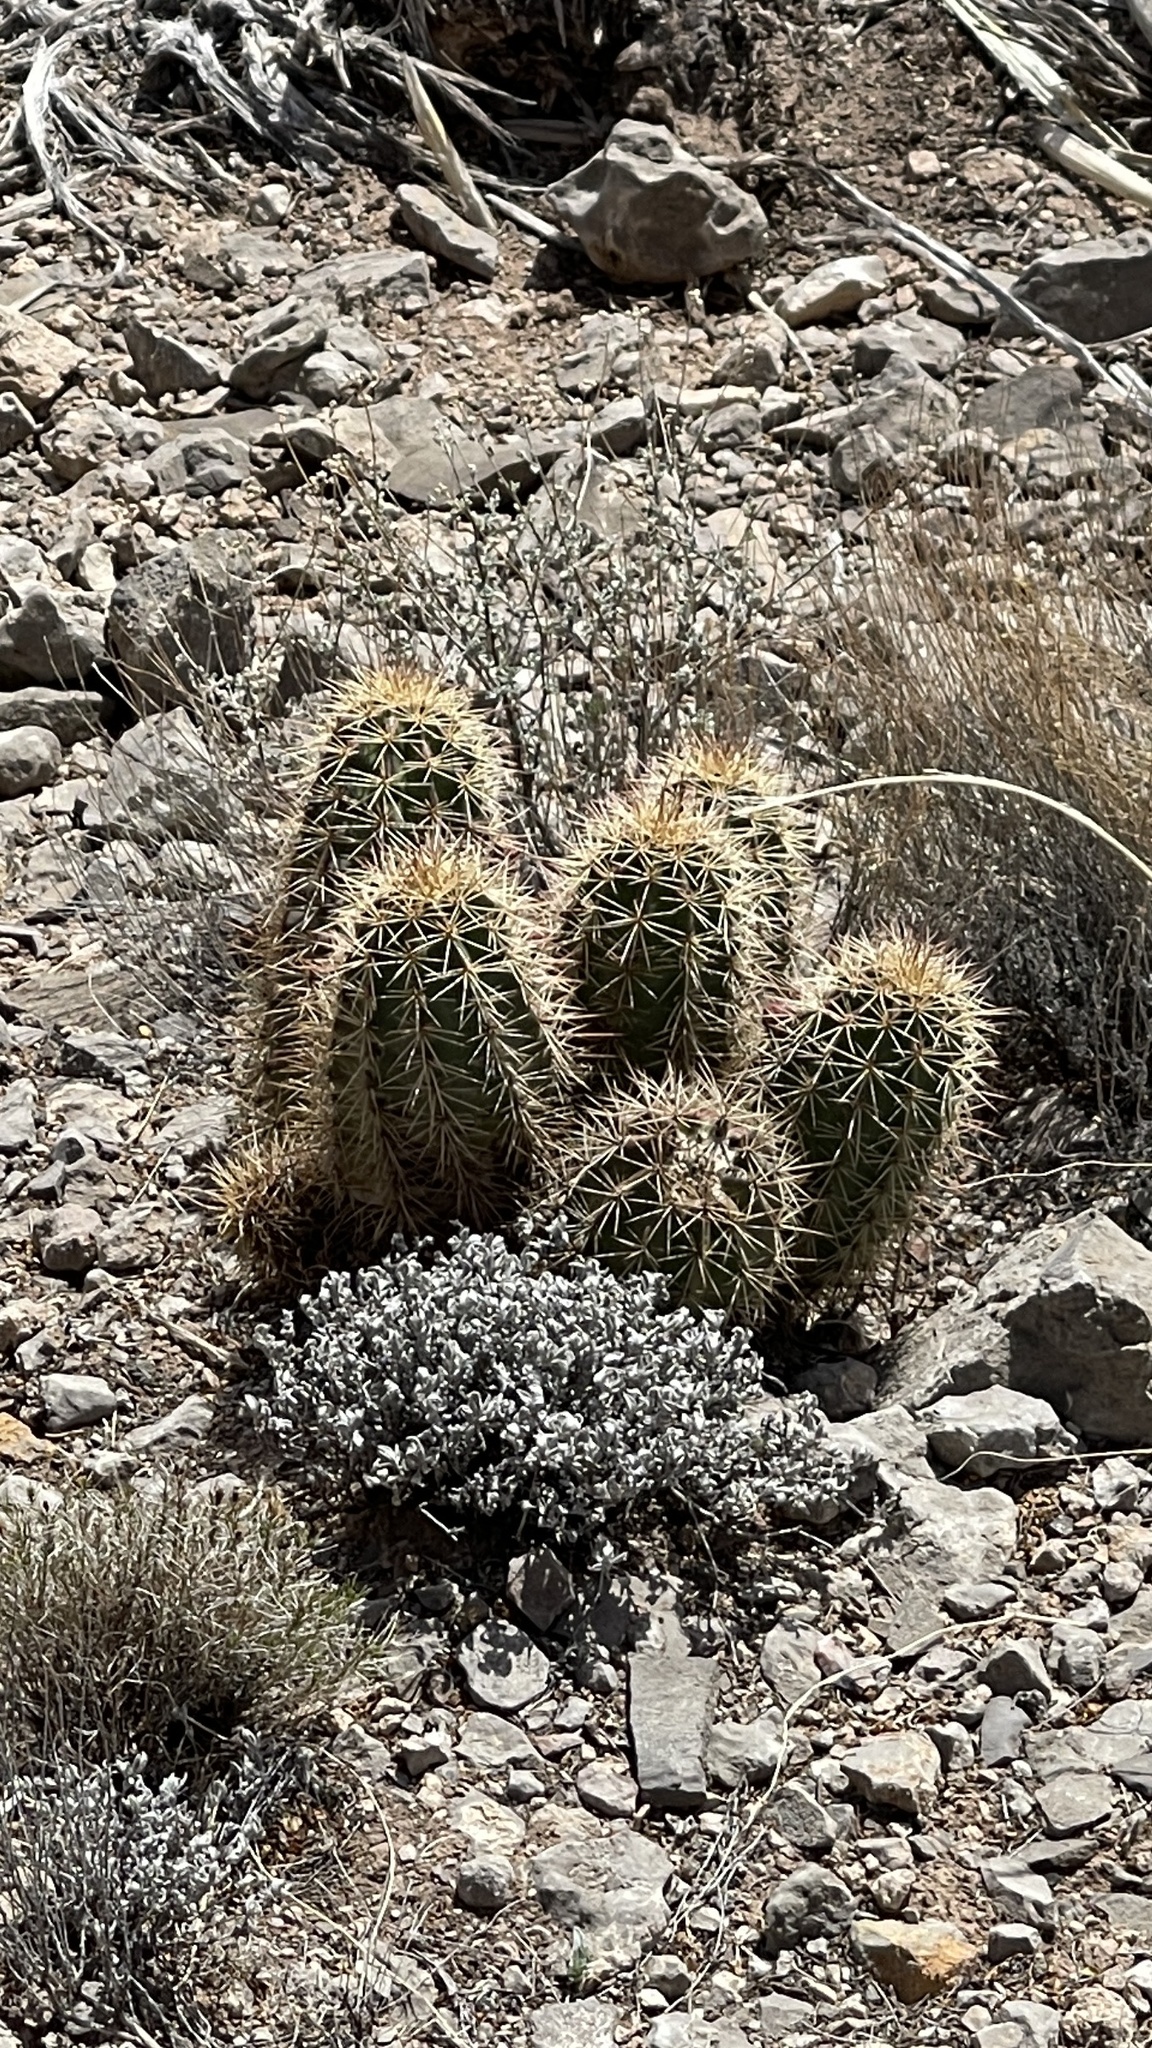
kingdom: Plantae
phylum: Tracheophyta
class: Magnoliopsida
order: Caryophyllales
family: Cactaceae
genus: Echinocereus
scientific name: Echinocereus coccineus
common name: Scarlet hedgehog cactus
